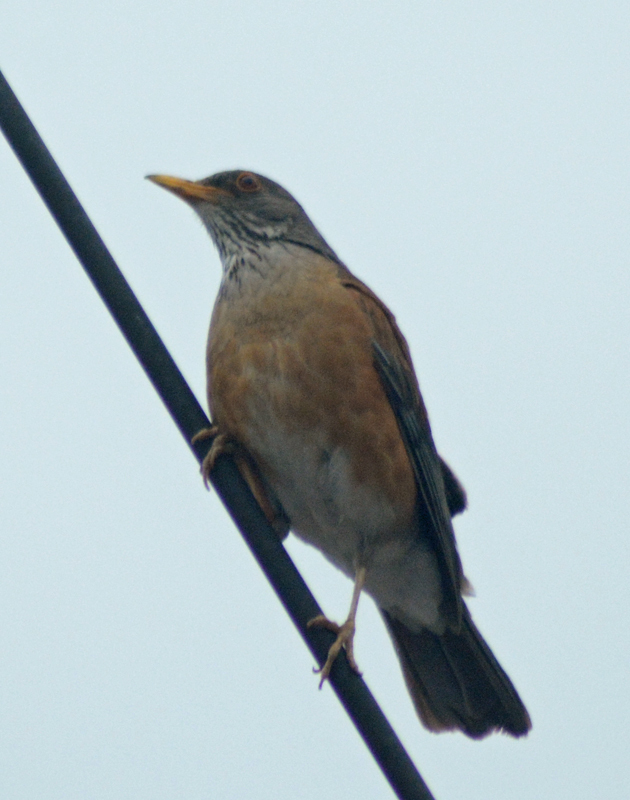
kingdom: Animalia
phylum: Chordata
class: Aves
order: Passeriformes
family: Turdidae
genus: Turdus
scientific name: Turdus rufopalliatus
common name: Rufous-backed robin
